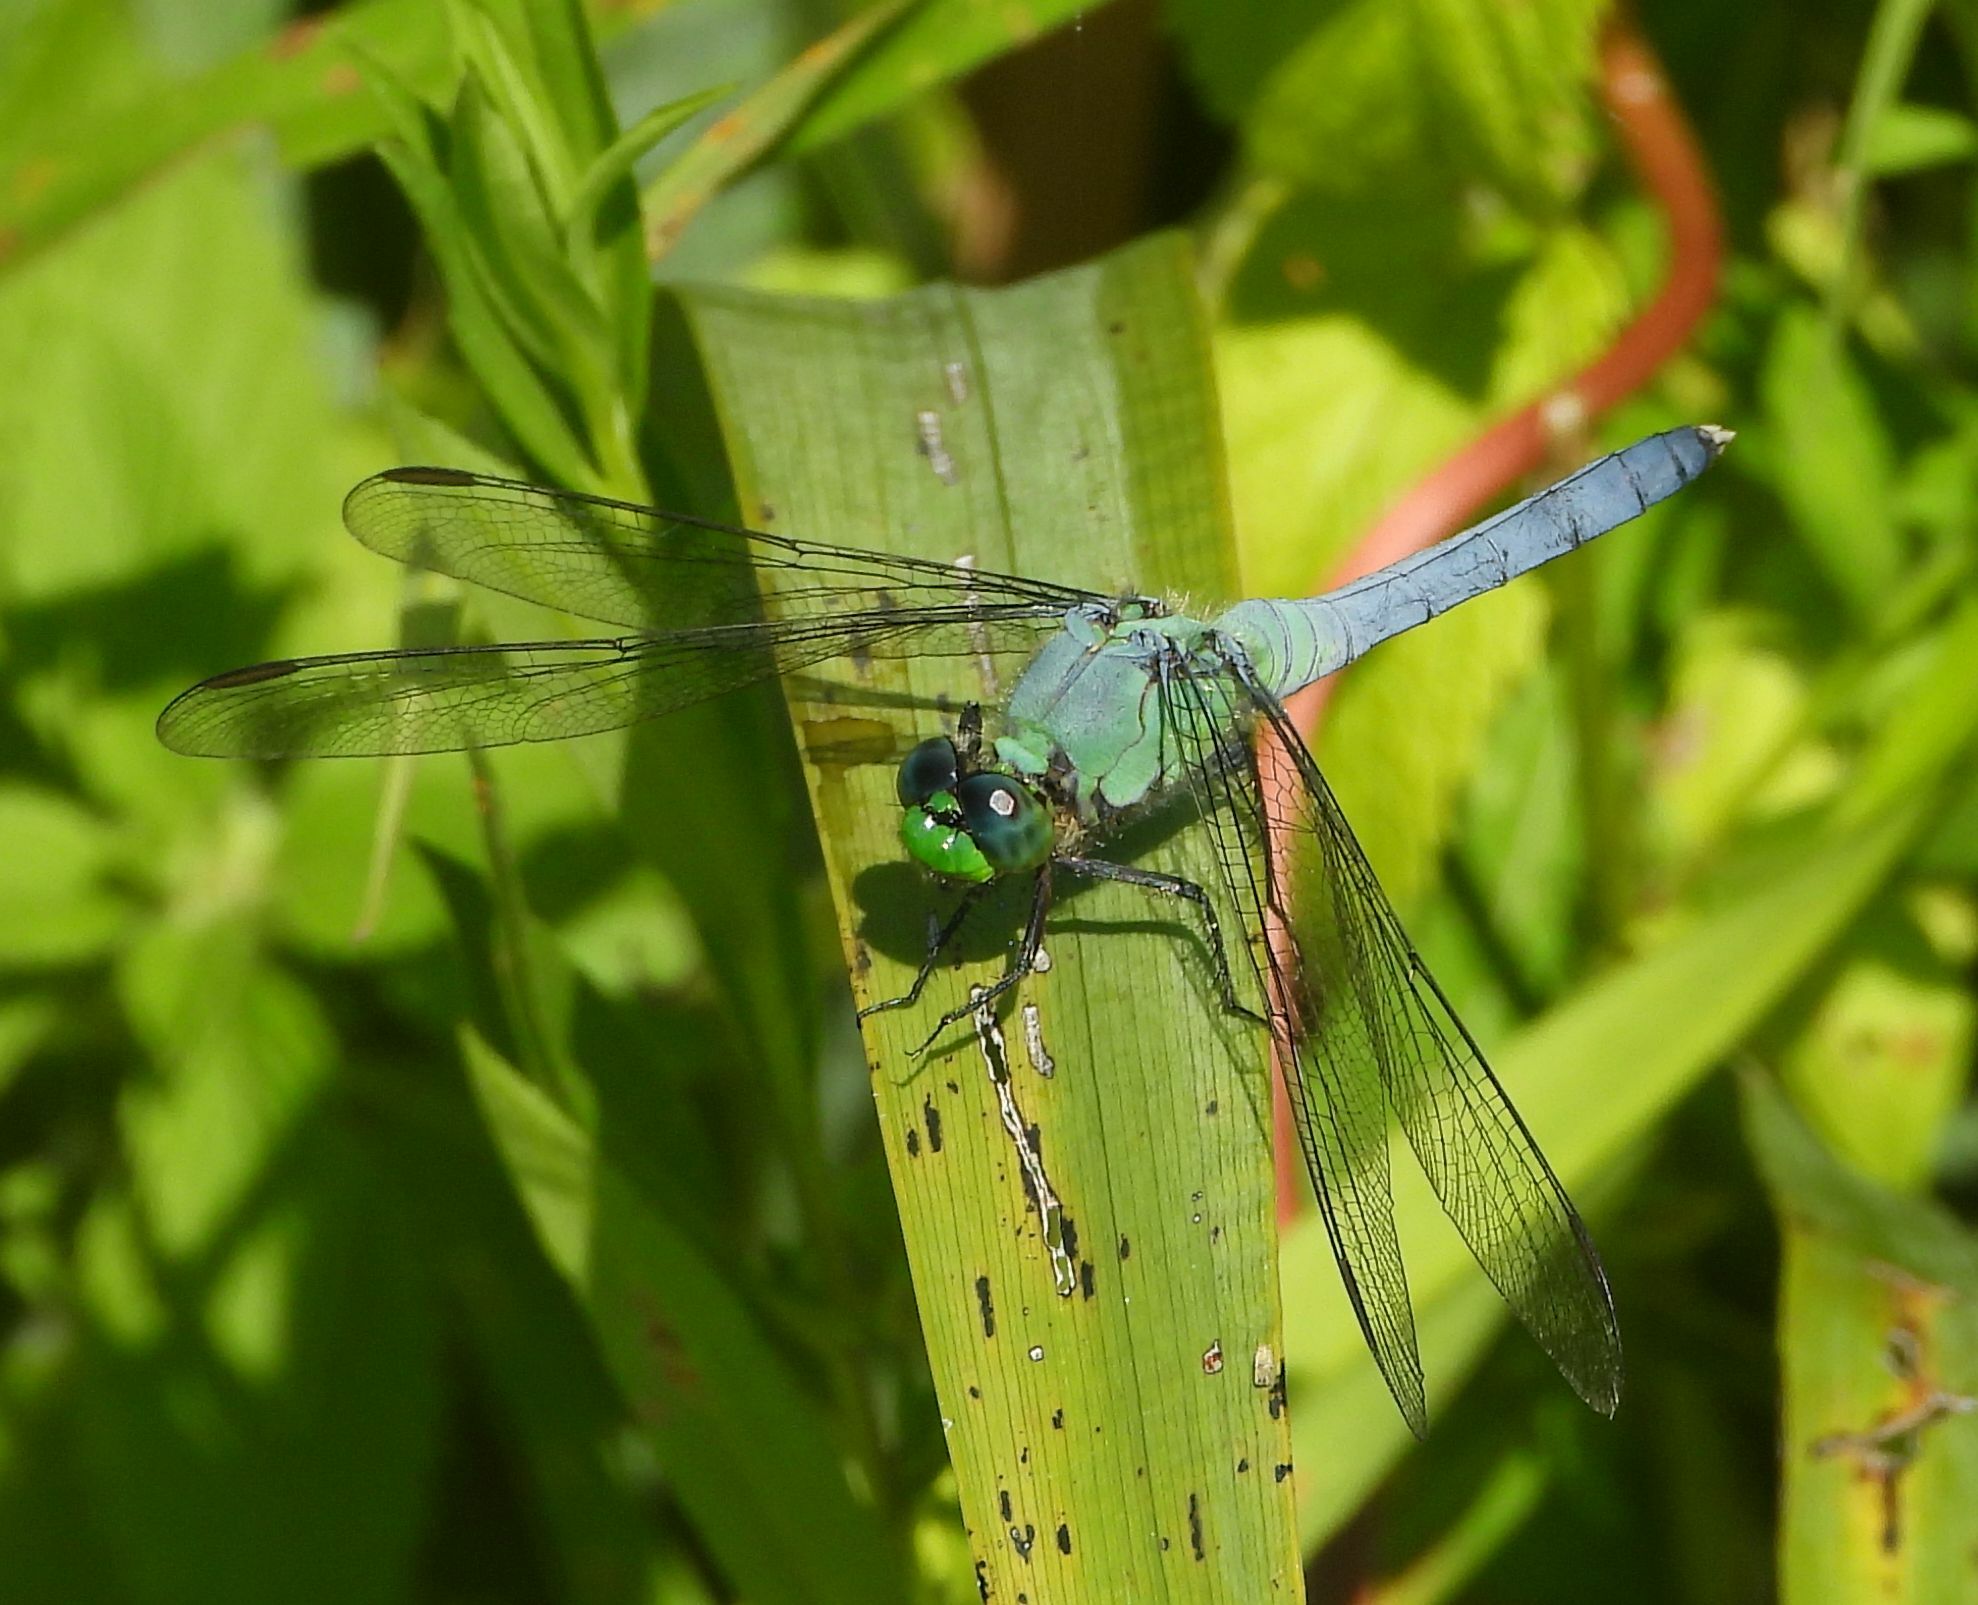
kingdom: Animalia
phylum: Arthropoda
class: Insecta
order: Odonata
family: Libellulidae
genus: Erythemis
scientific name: Erythemis simplicicollis
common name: Eastern pondhawk
